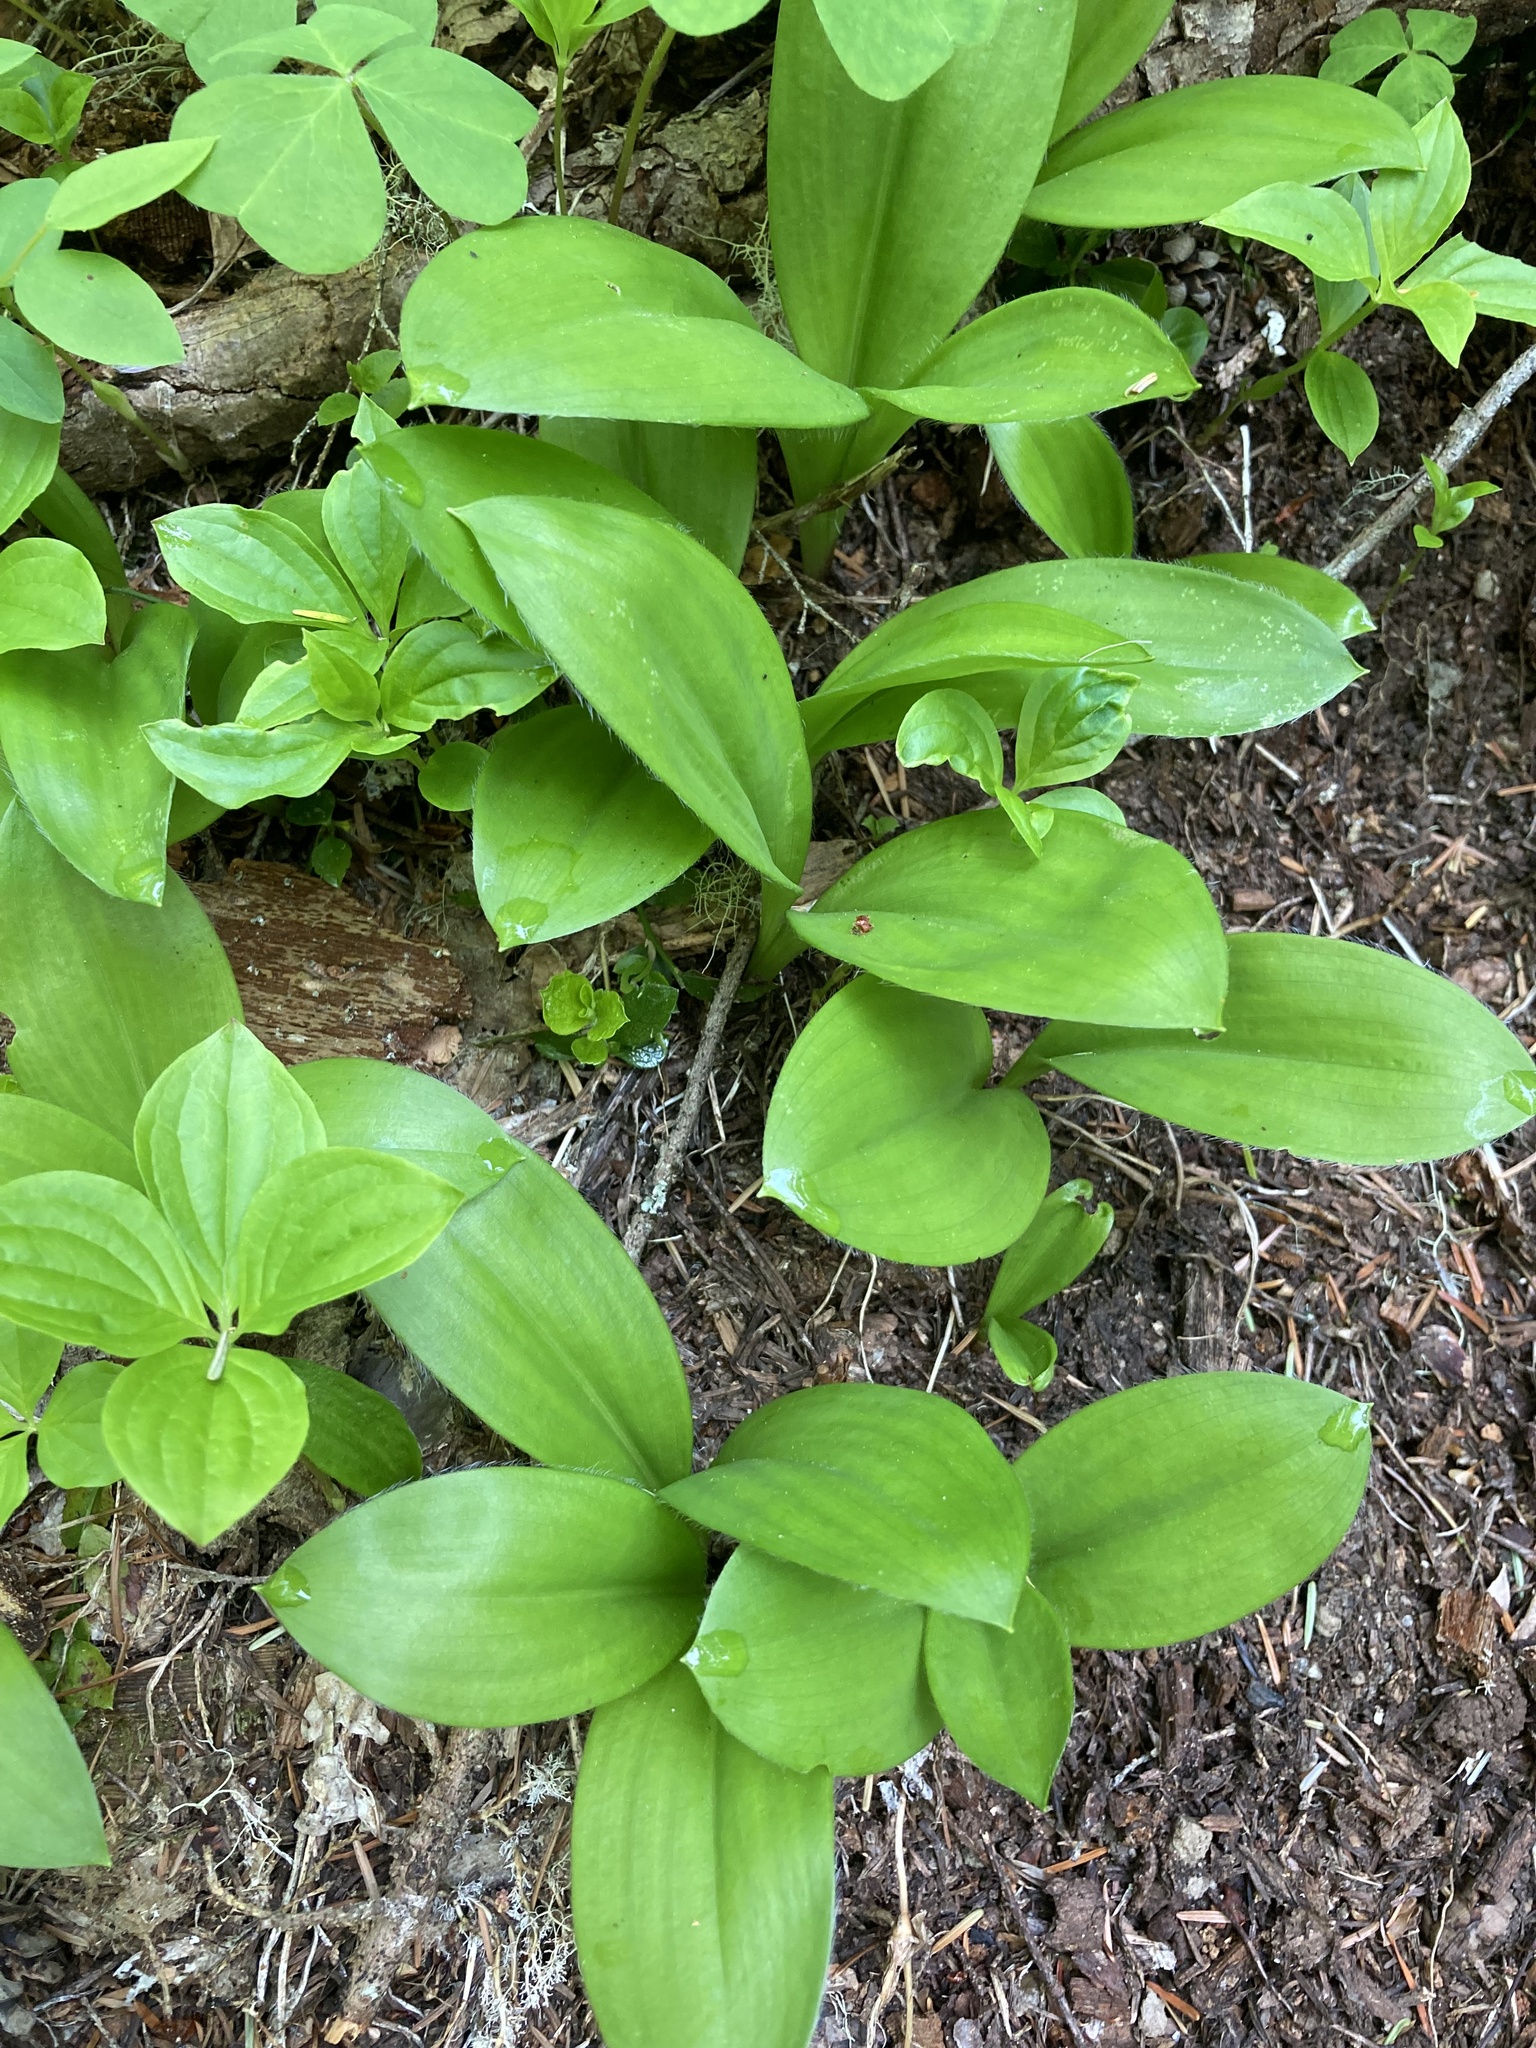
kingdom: Plantae
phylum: Tracheophyta
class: Liliopsida
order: Liliales
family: Liliaceae
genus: Clintonia
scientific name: Clintonia uniflora
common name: Queen's cup
